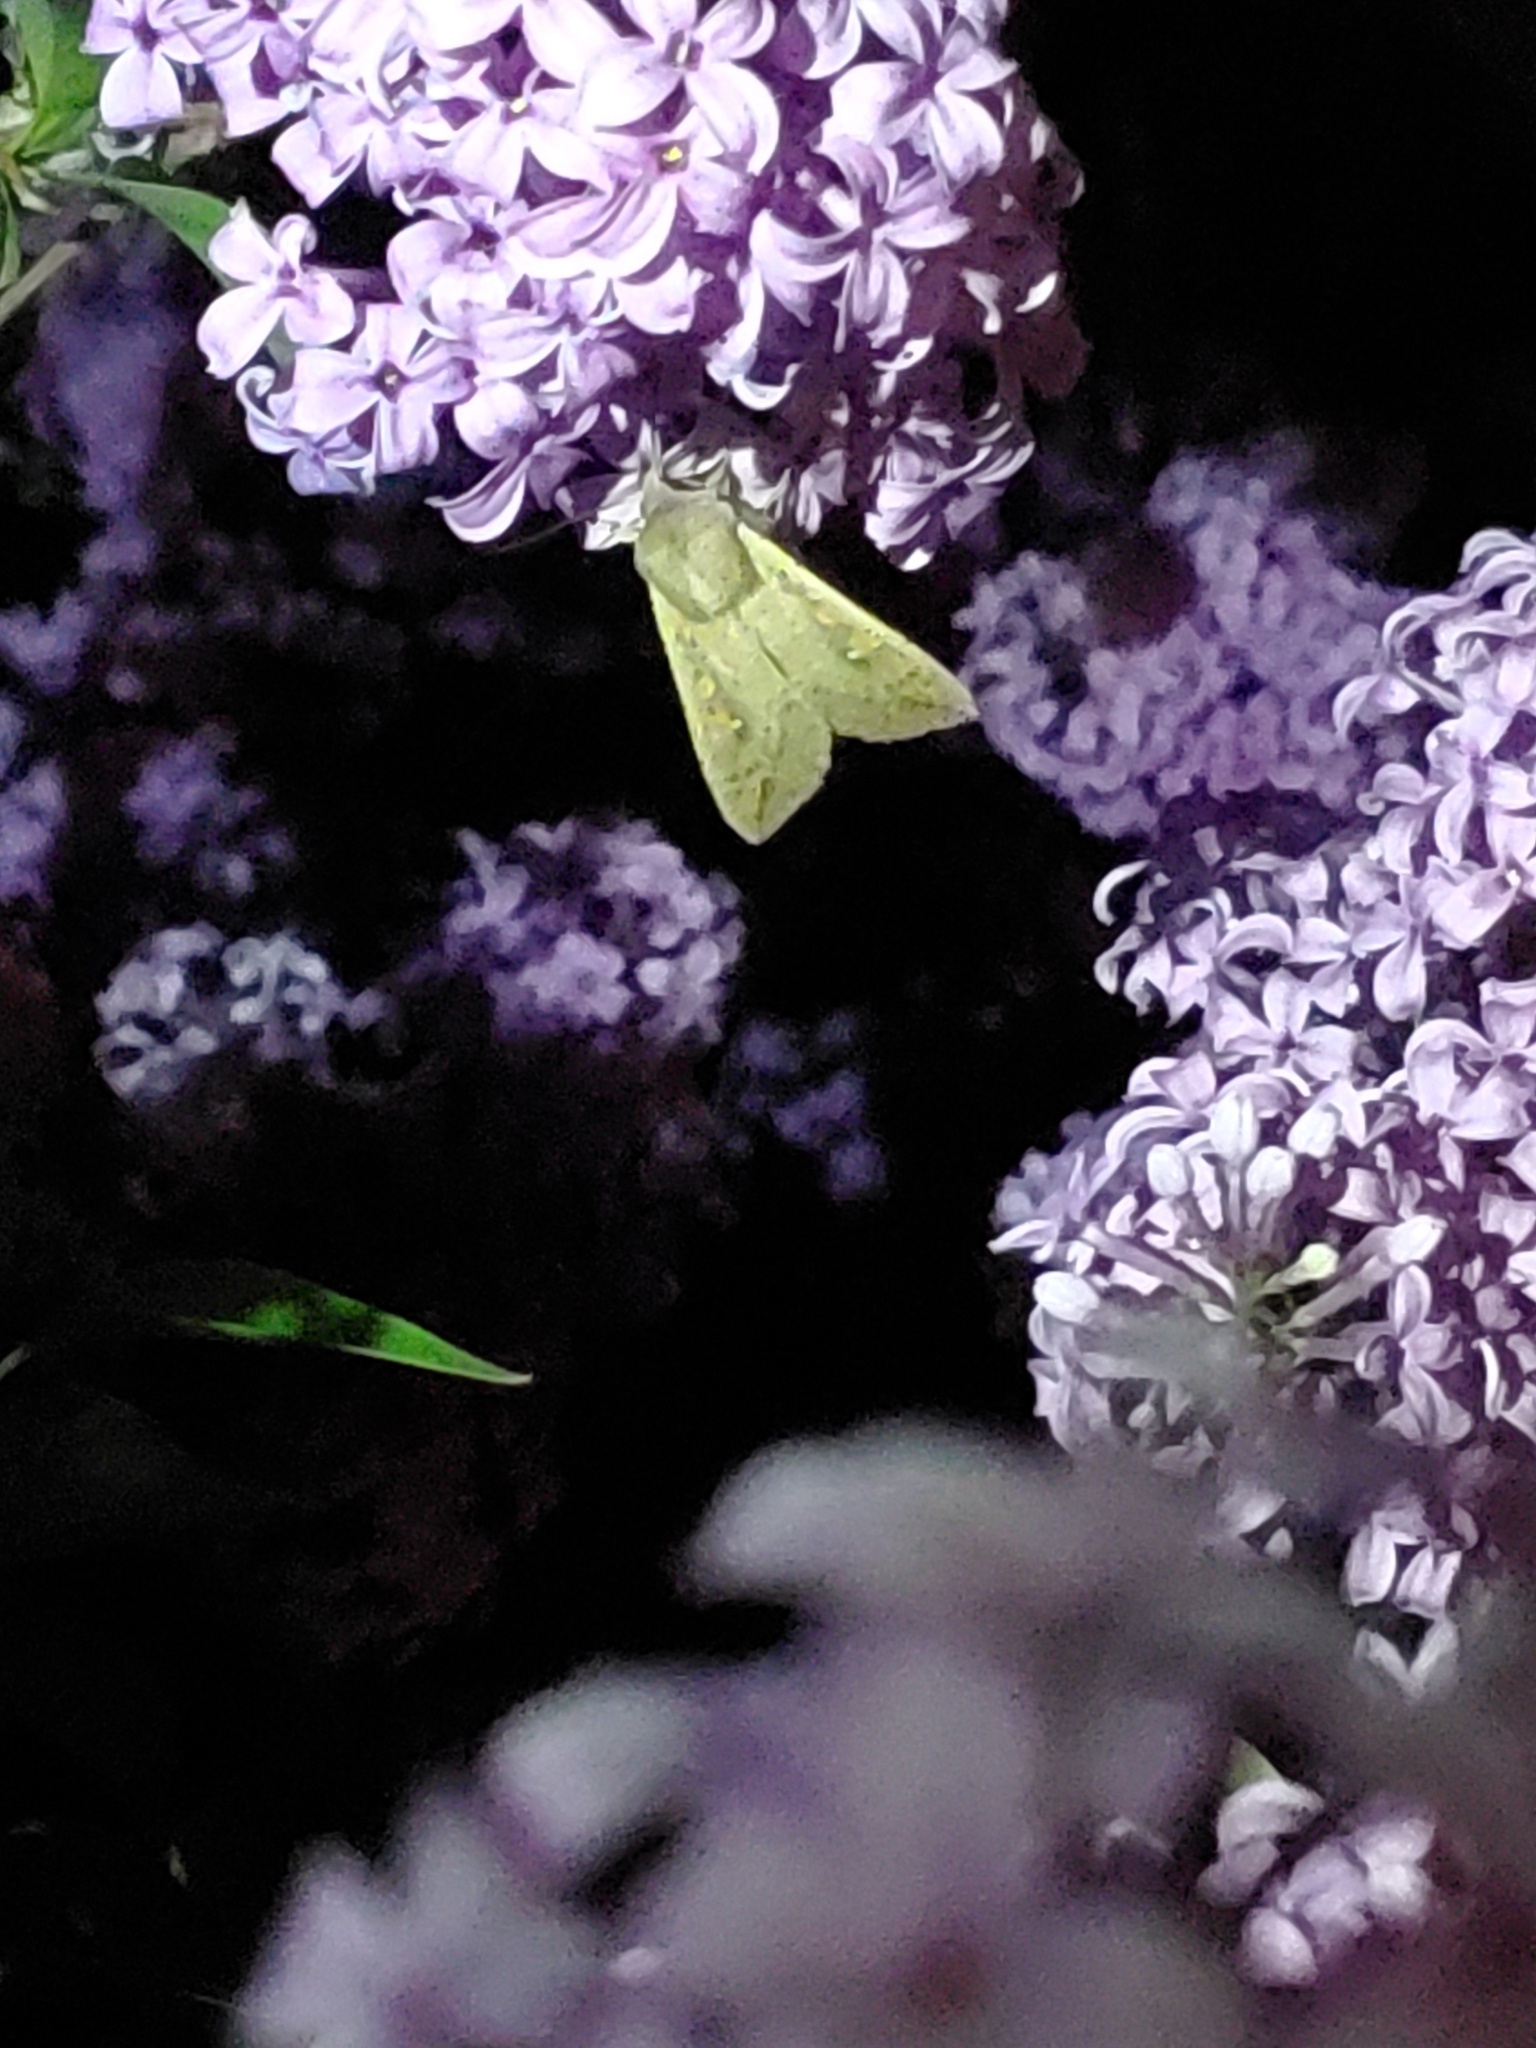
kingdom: Animalia
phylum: Arthropoda
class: Insecta
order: Lepidoptera
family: Noctuidae
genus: Mythimna
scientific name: Mythimna unipuncta
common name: White-speck
